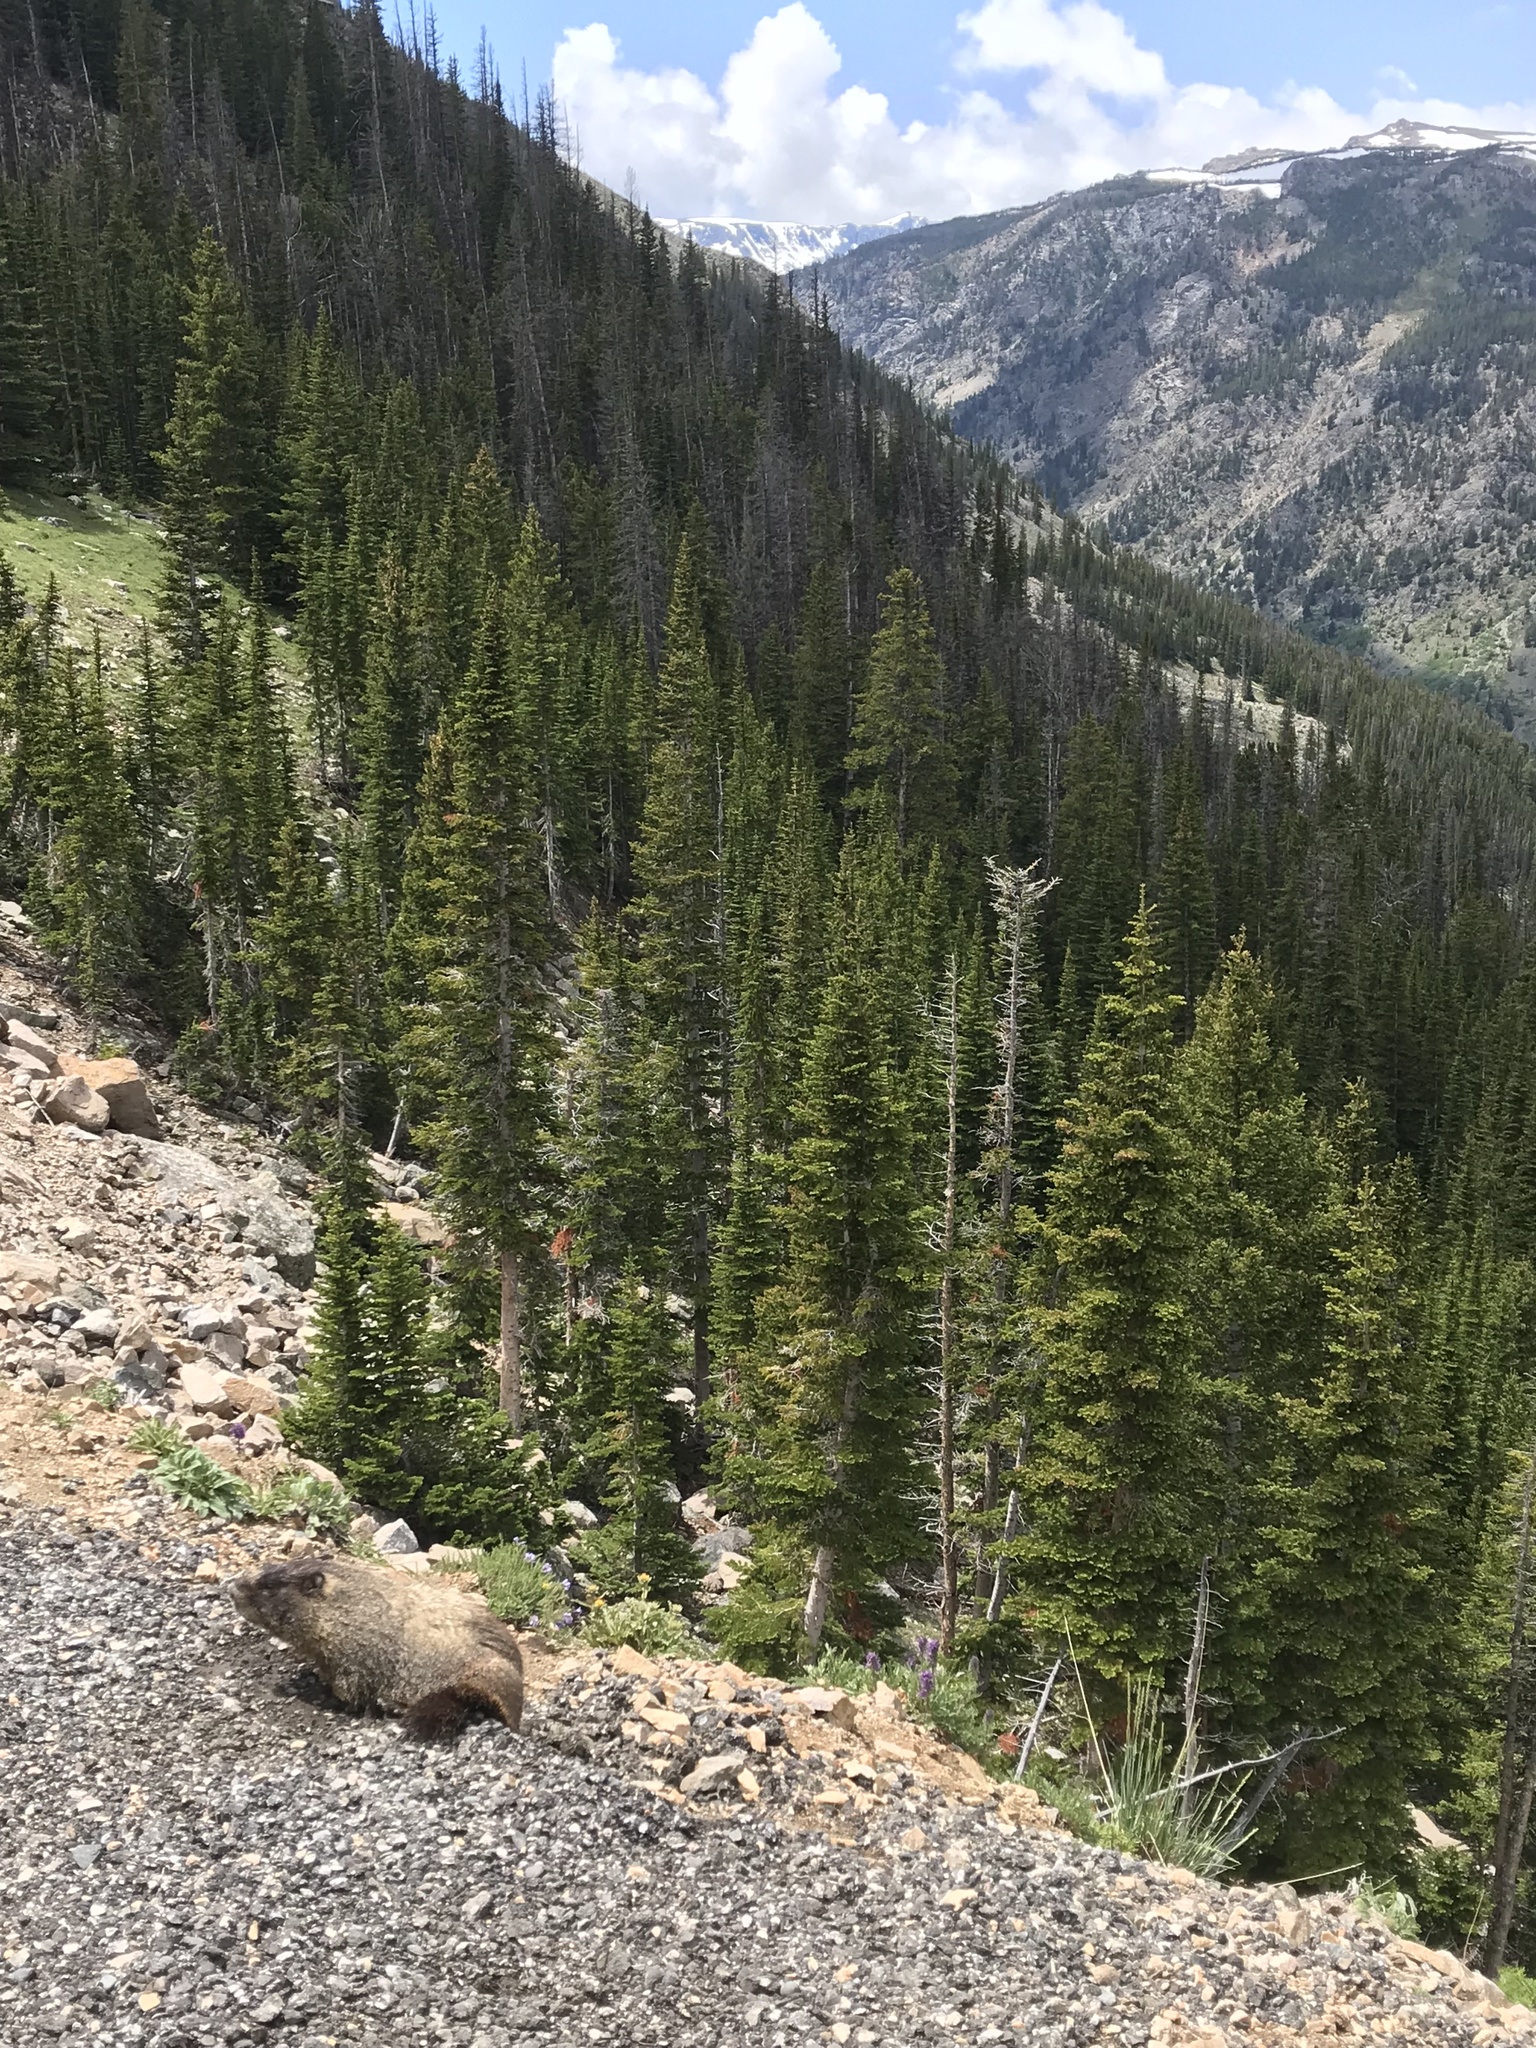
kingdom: Animalia
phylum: Chordata
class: Mammalia
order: Rodentia
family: Sciuridae
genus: Marmota
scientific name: Marmota flaviventris
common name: Yellow-bellied marmot
